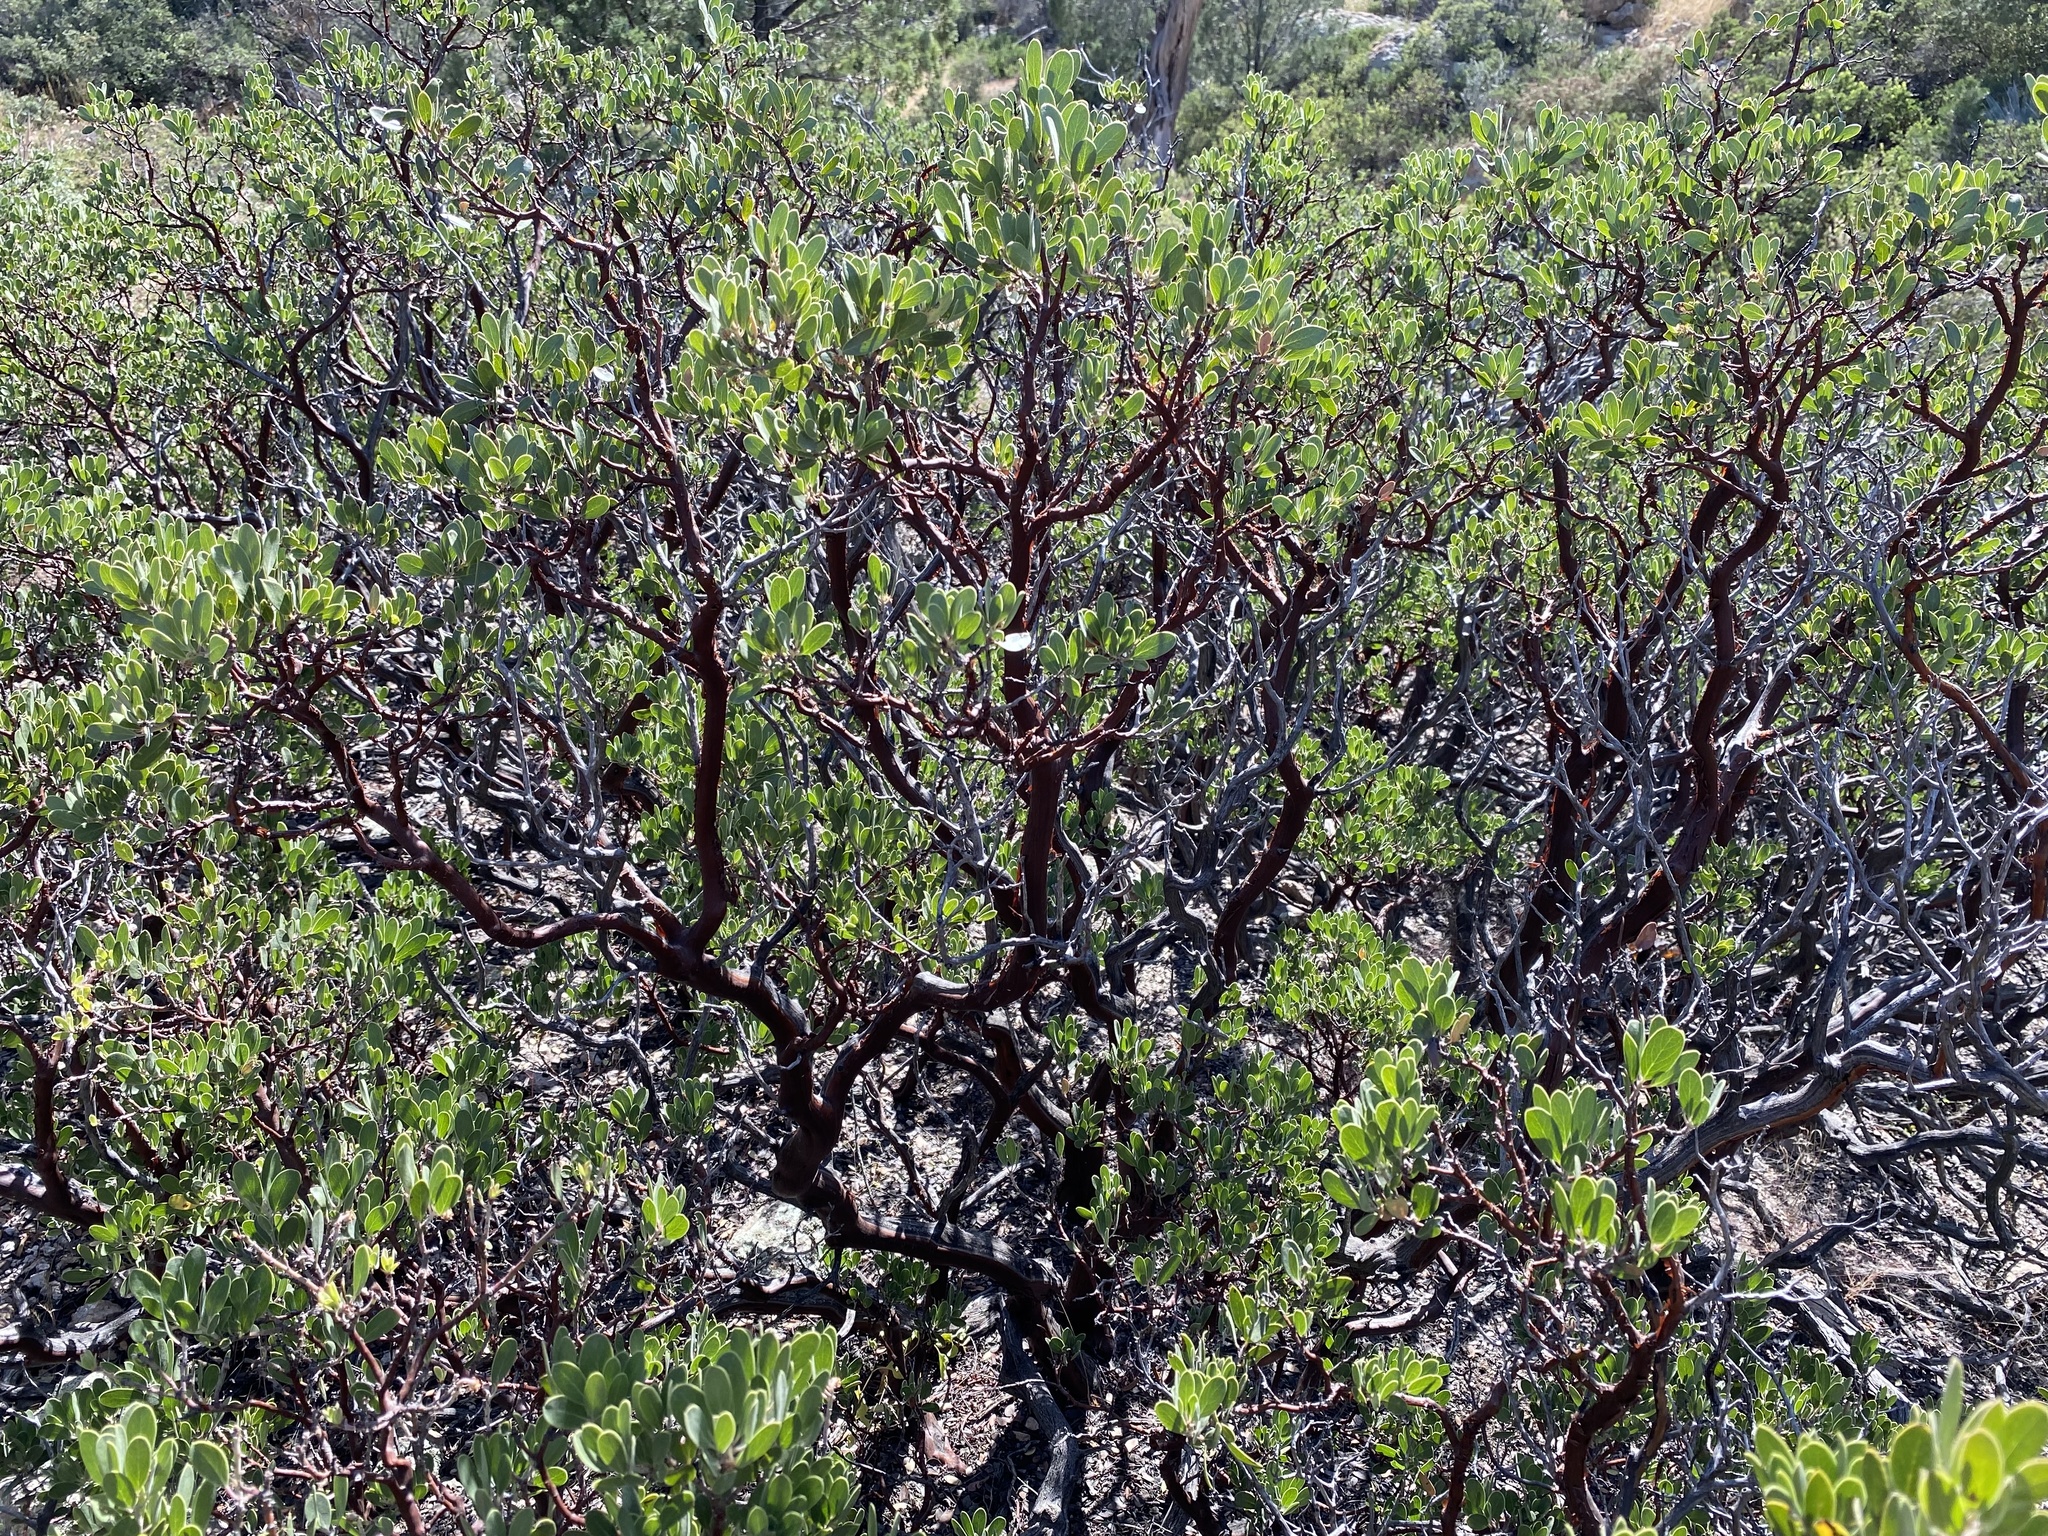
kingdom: Plantae
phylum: Tracheophyta
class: Magnoliopsida
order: Ericales
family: Ericaceae
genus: Arctostaphylos
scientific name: Arctostaphylos pungens
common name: Mexican manzanita
